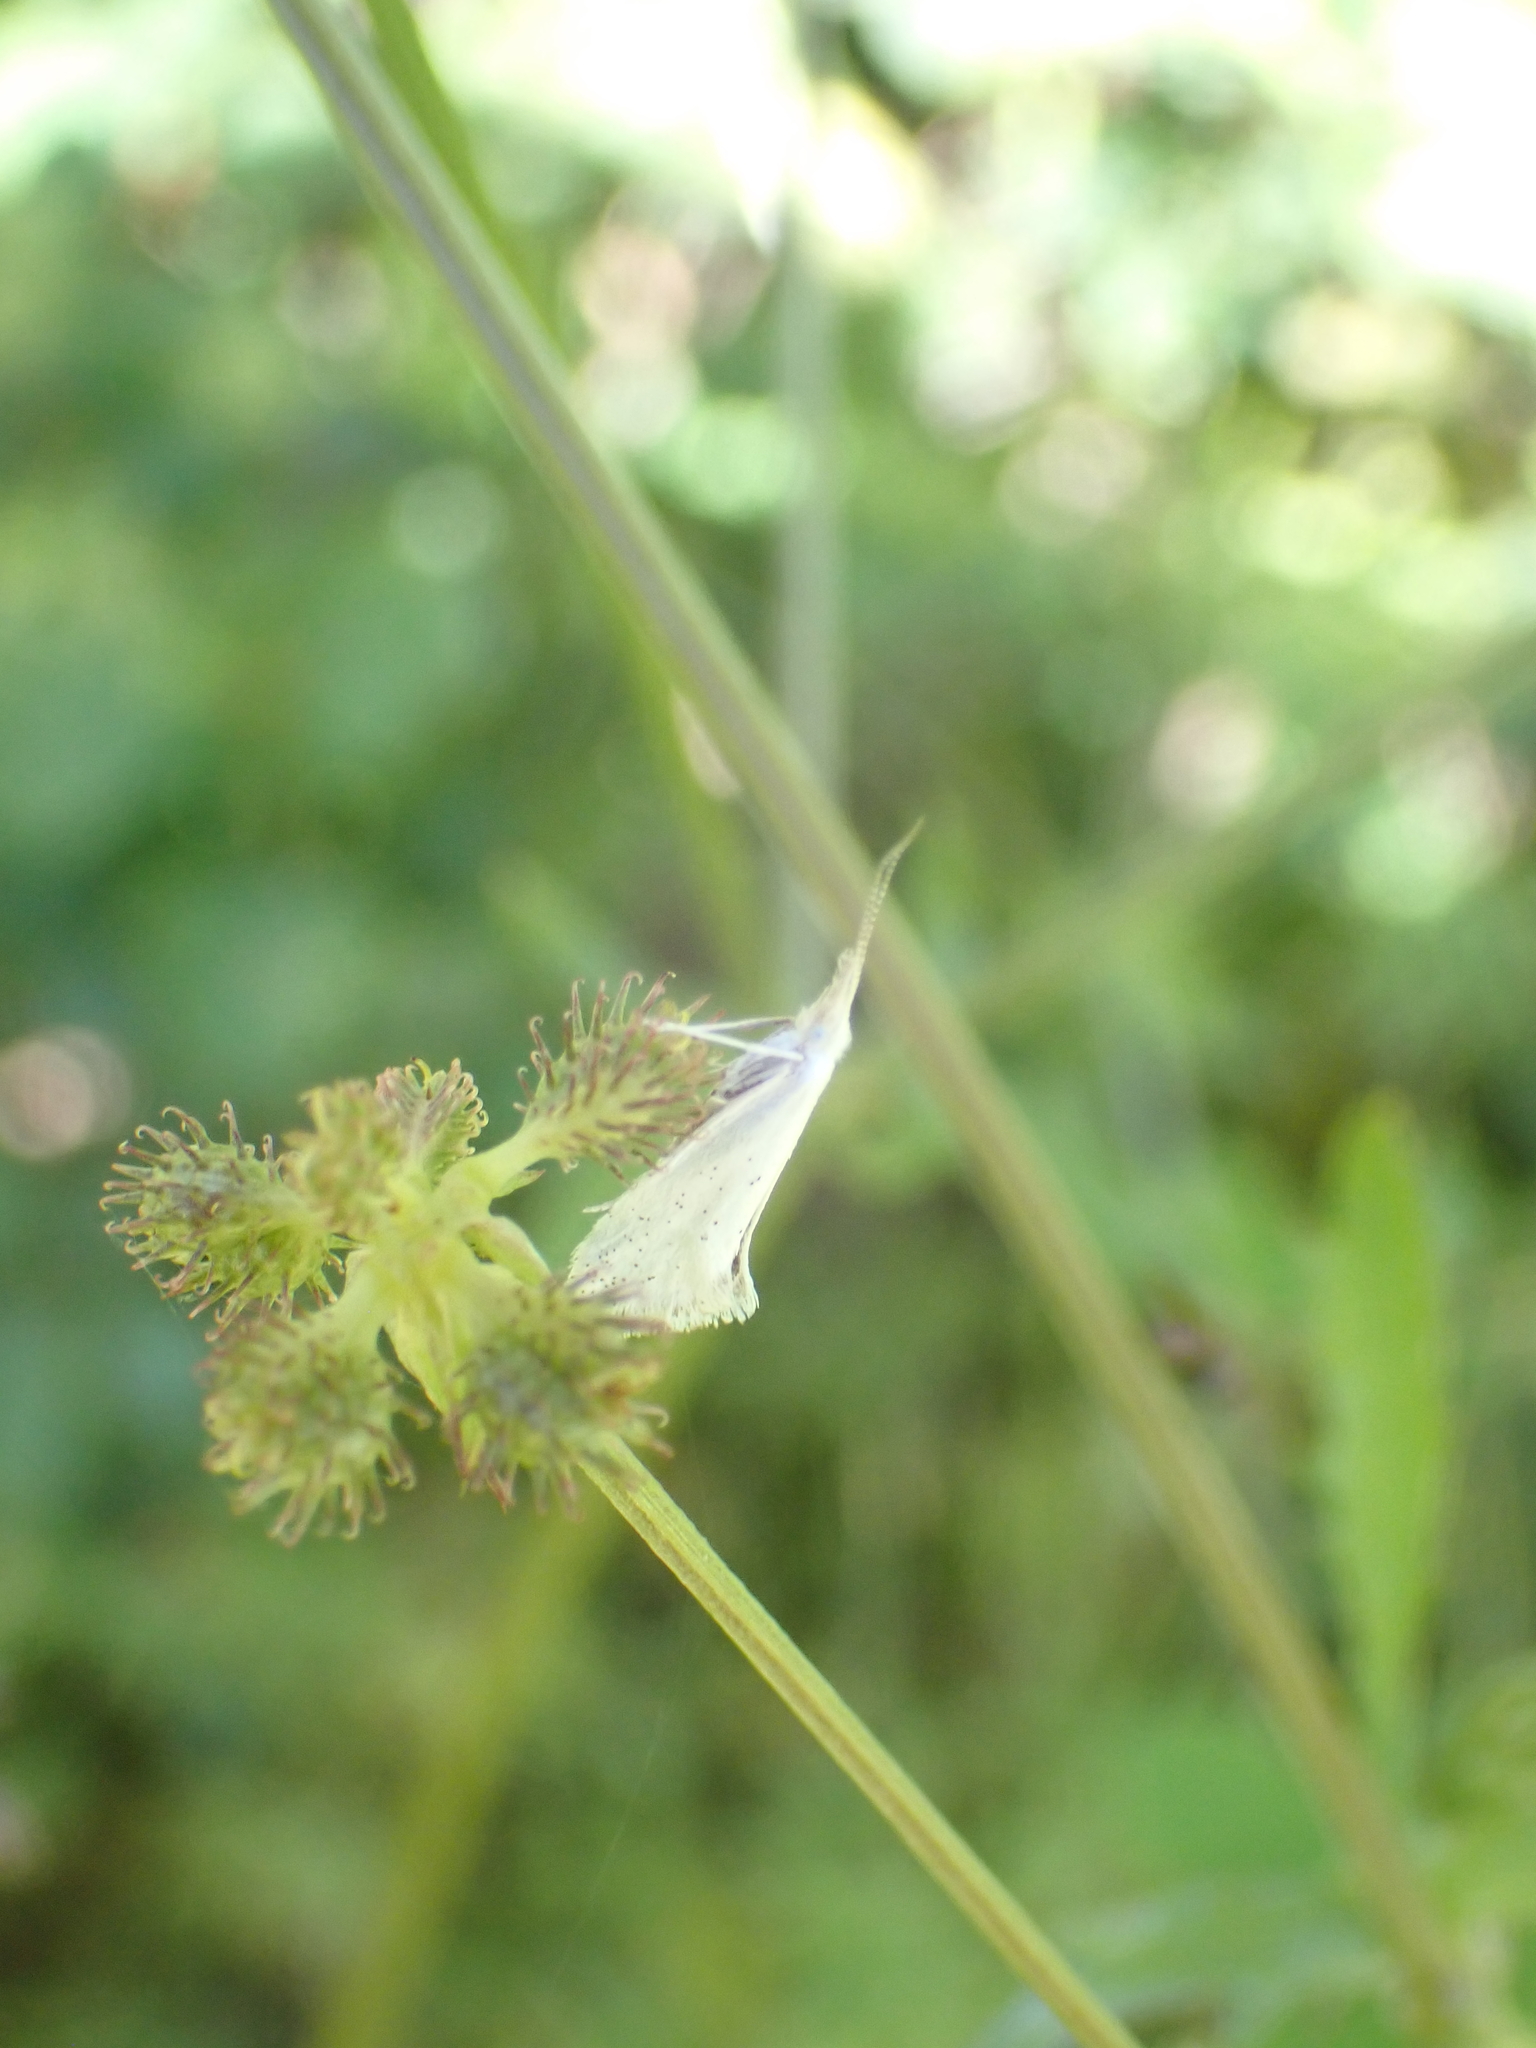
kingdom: Animalia
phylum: Arthropoda
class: Insecta
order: Lepidoptera
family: Ypsolophidae
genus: Euceratia
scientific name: Euceratia castella
